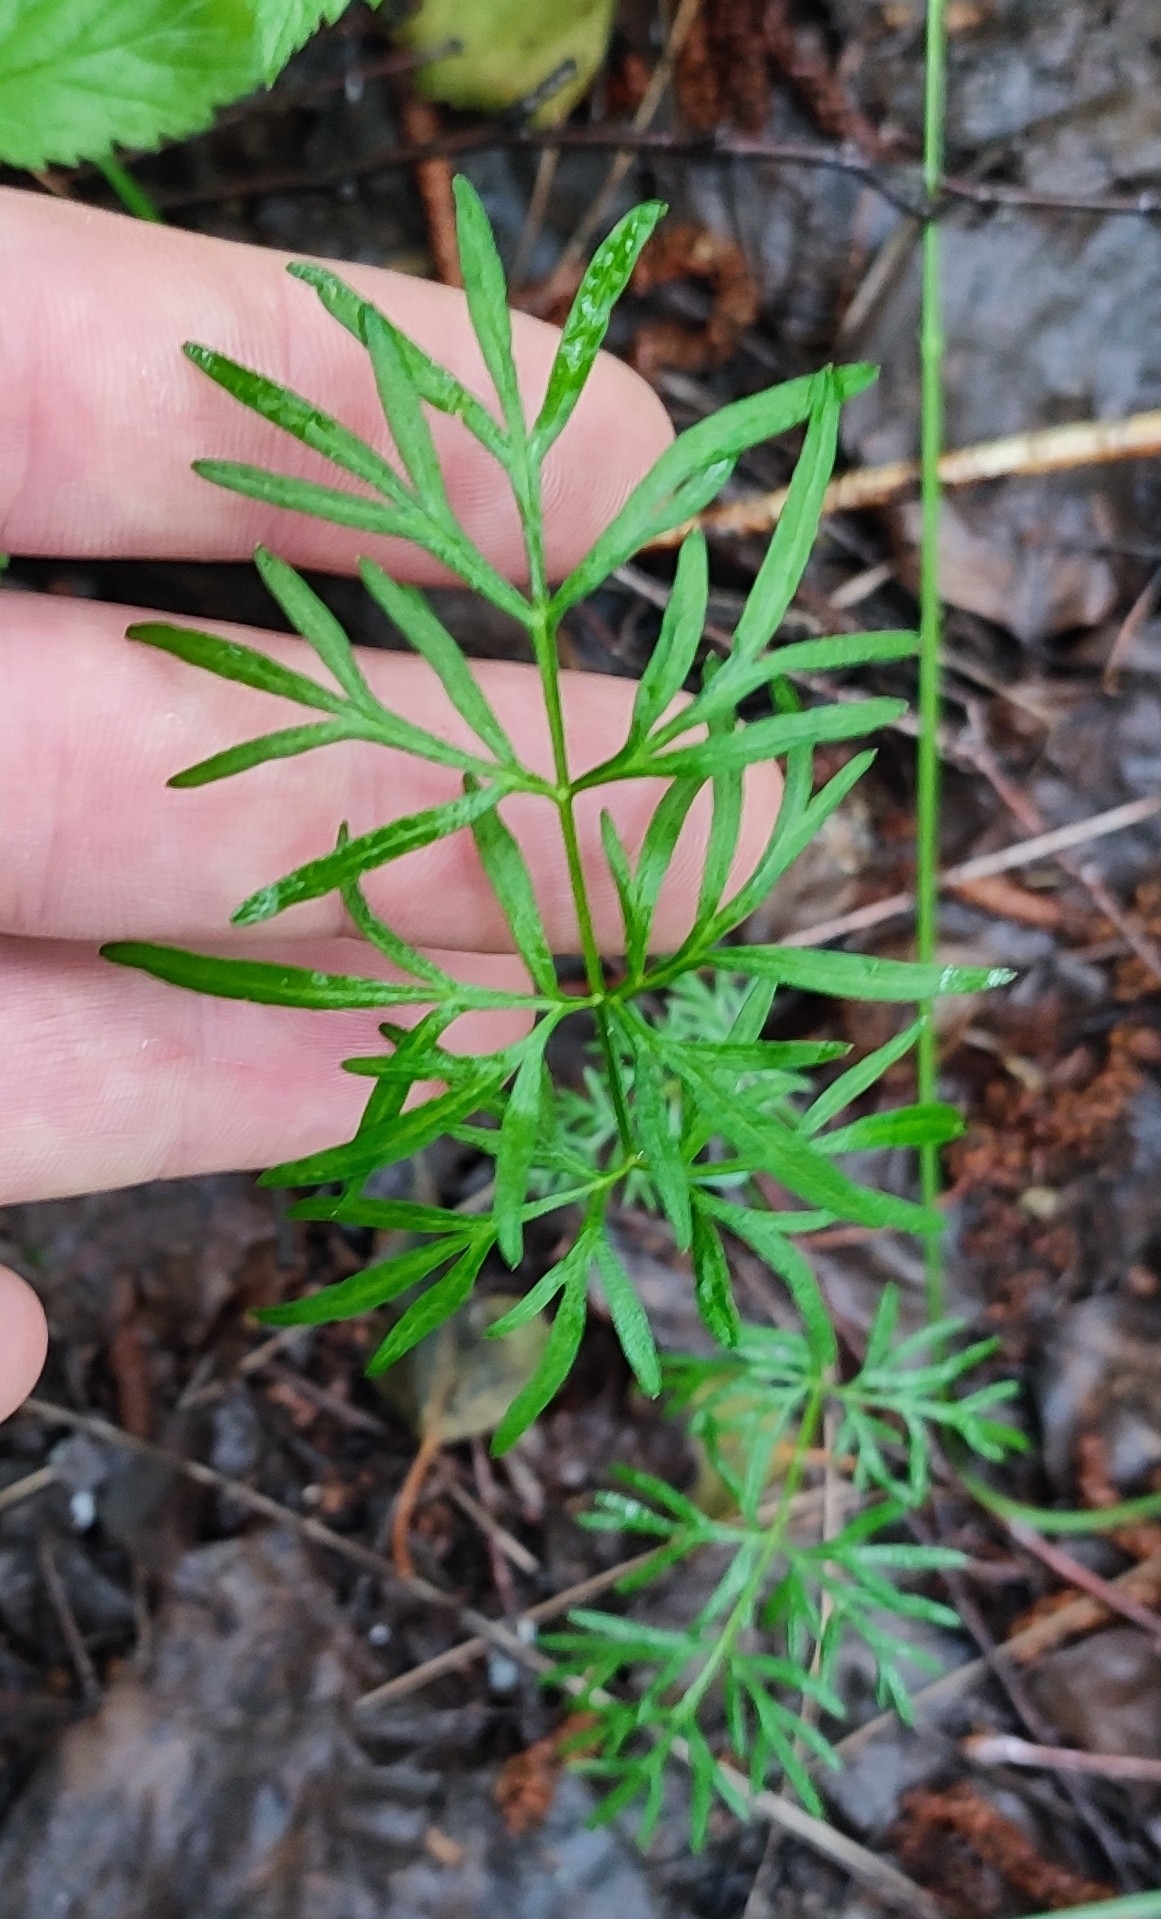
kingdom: Plantae
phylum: Tracheophyta
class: Magnoliopsida
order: Apiales
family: Apiaceae
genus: Kadenia
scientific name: Kadenia dubia
